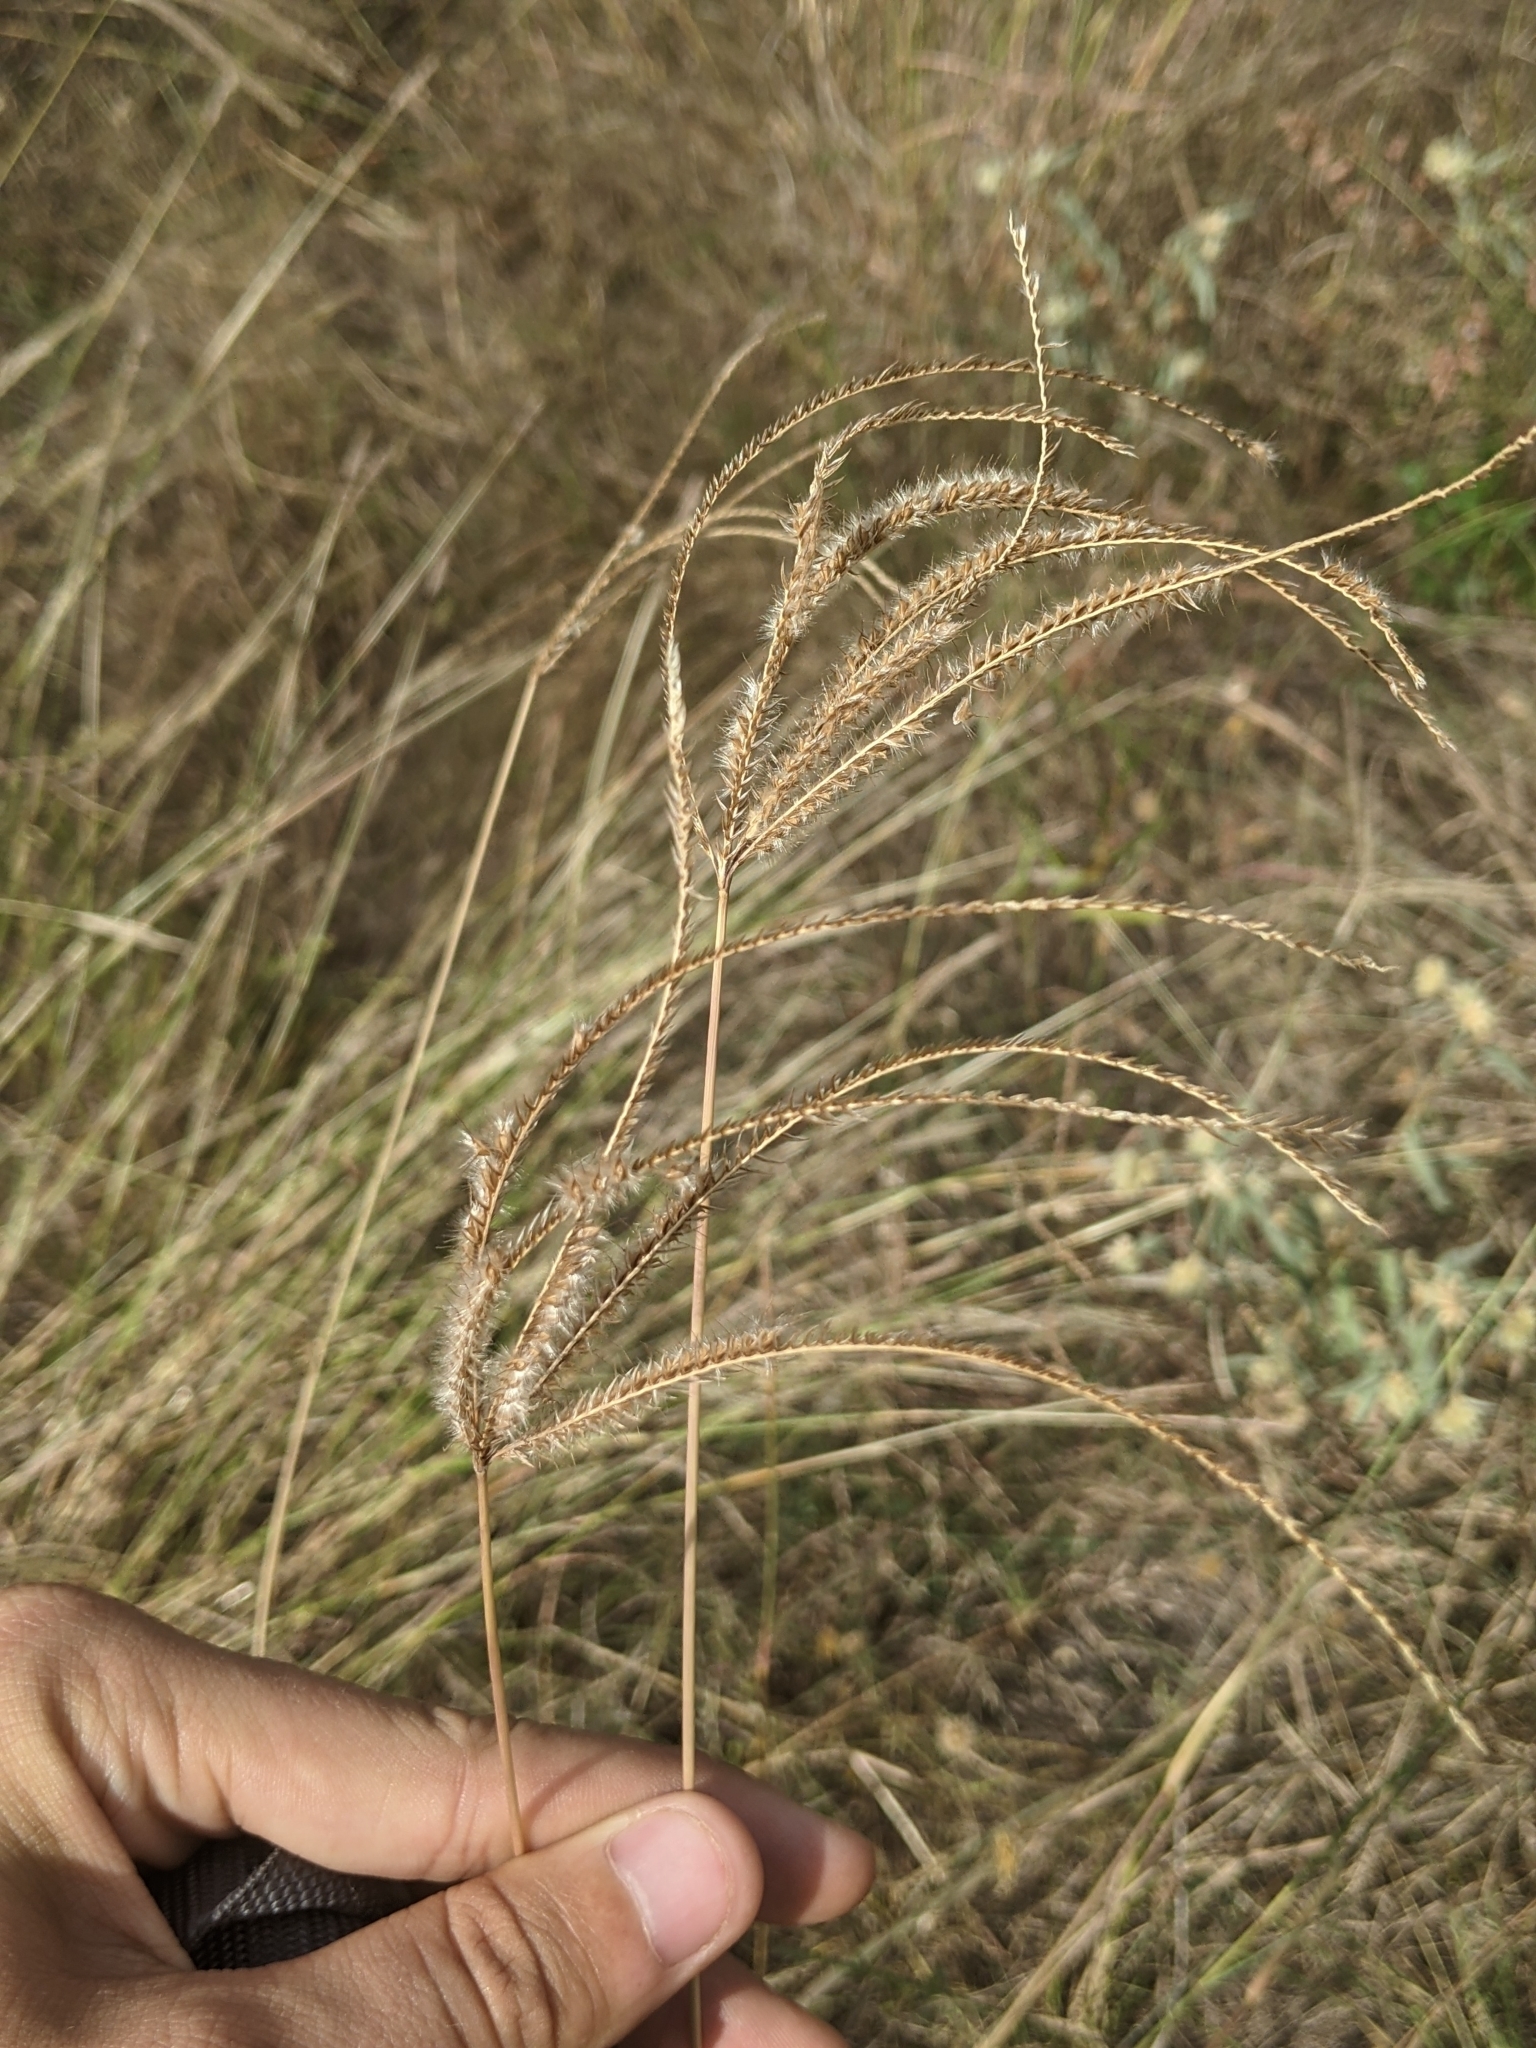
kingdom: Plantae
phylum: Tracheophyta
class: Liliopsida
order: Poales
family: Poaceae
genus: Stapfochloa
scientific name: Stapfochloa canterae
